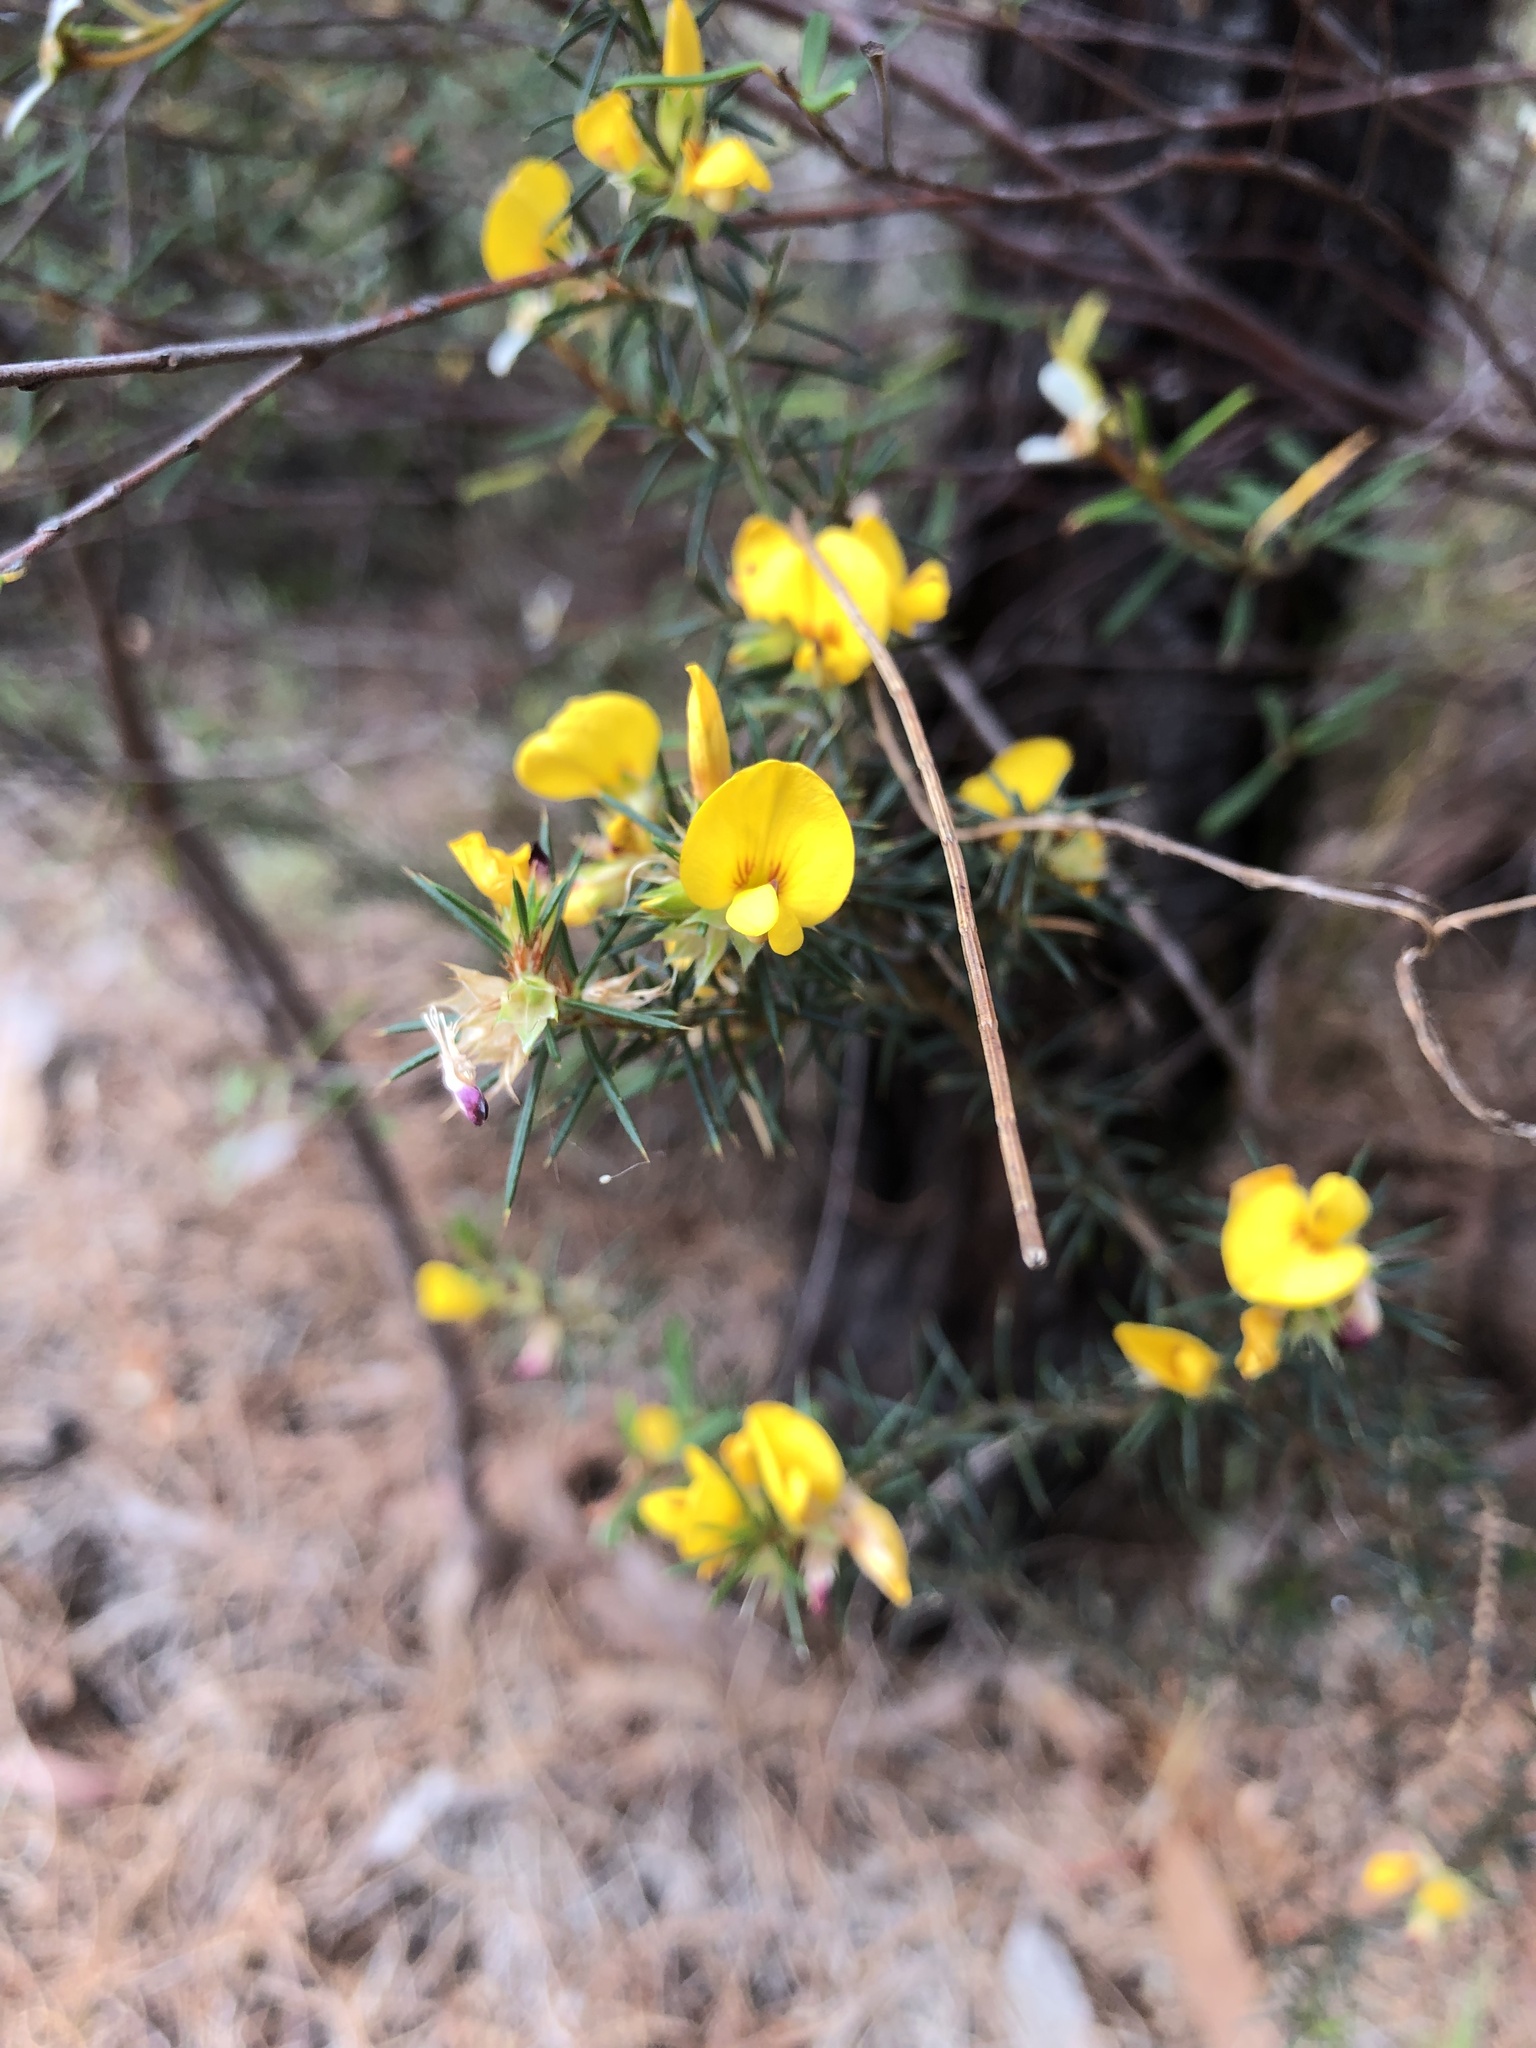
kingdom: Plantae
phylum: Tracheophyta
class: Magnoliopsida
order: Fabales
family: Fabaceae
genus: Pultenaea
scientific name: Pultenaea acerosa
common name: Bristly bush-pea
